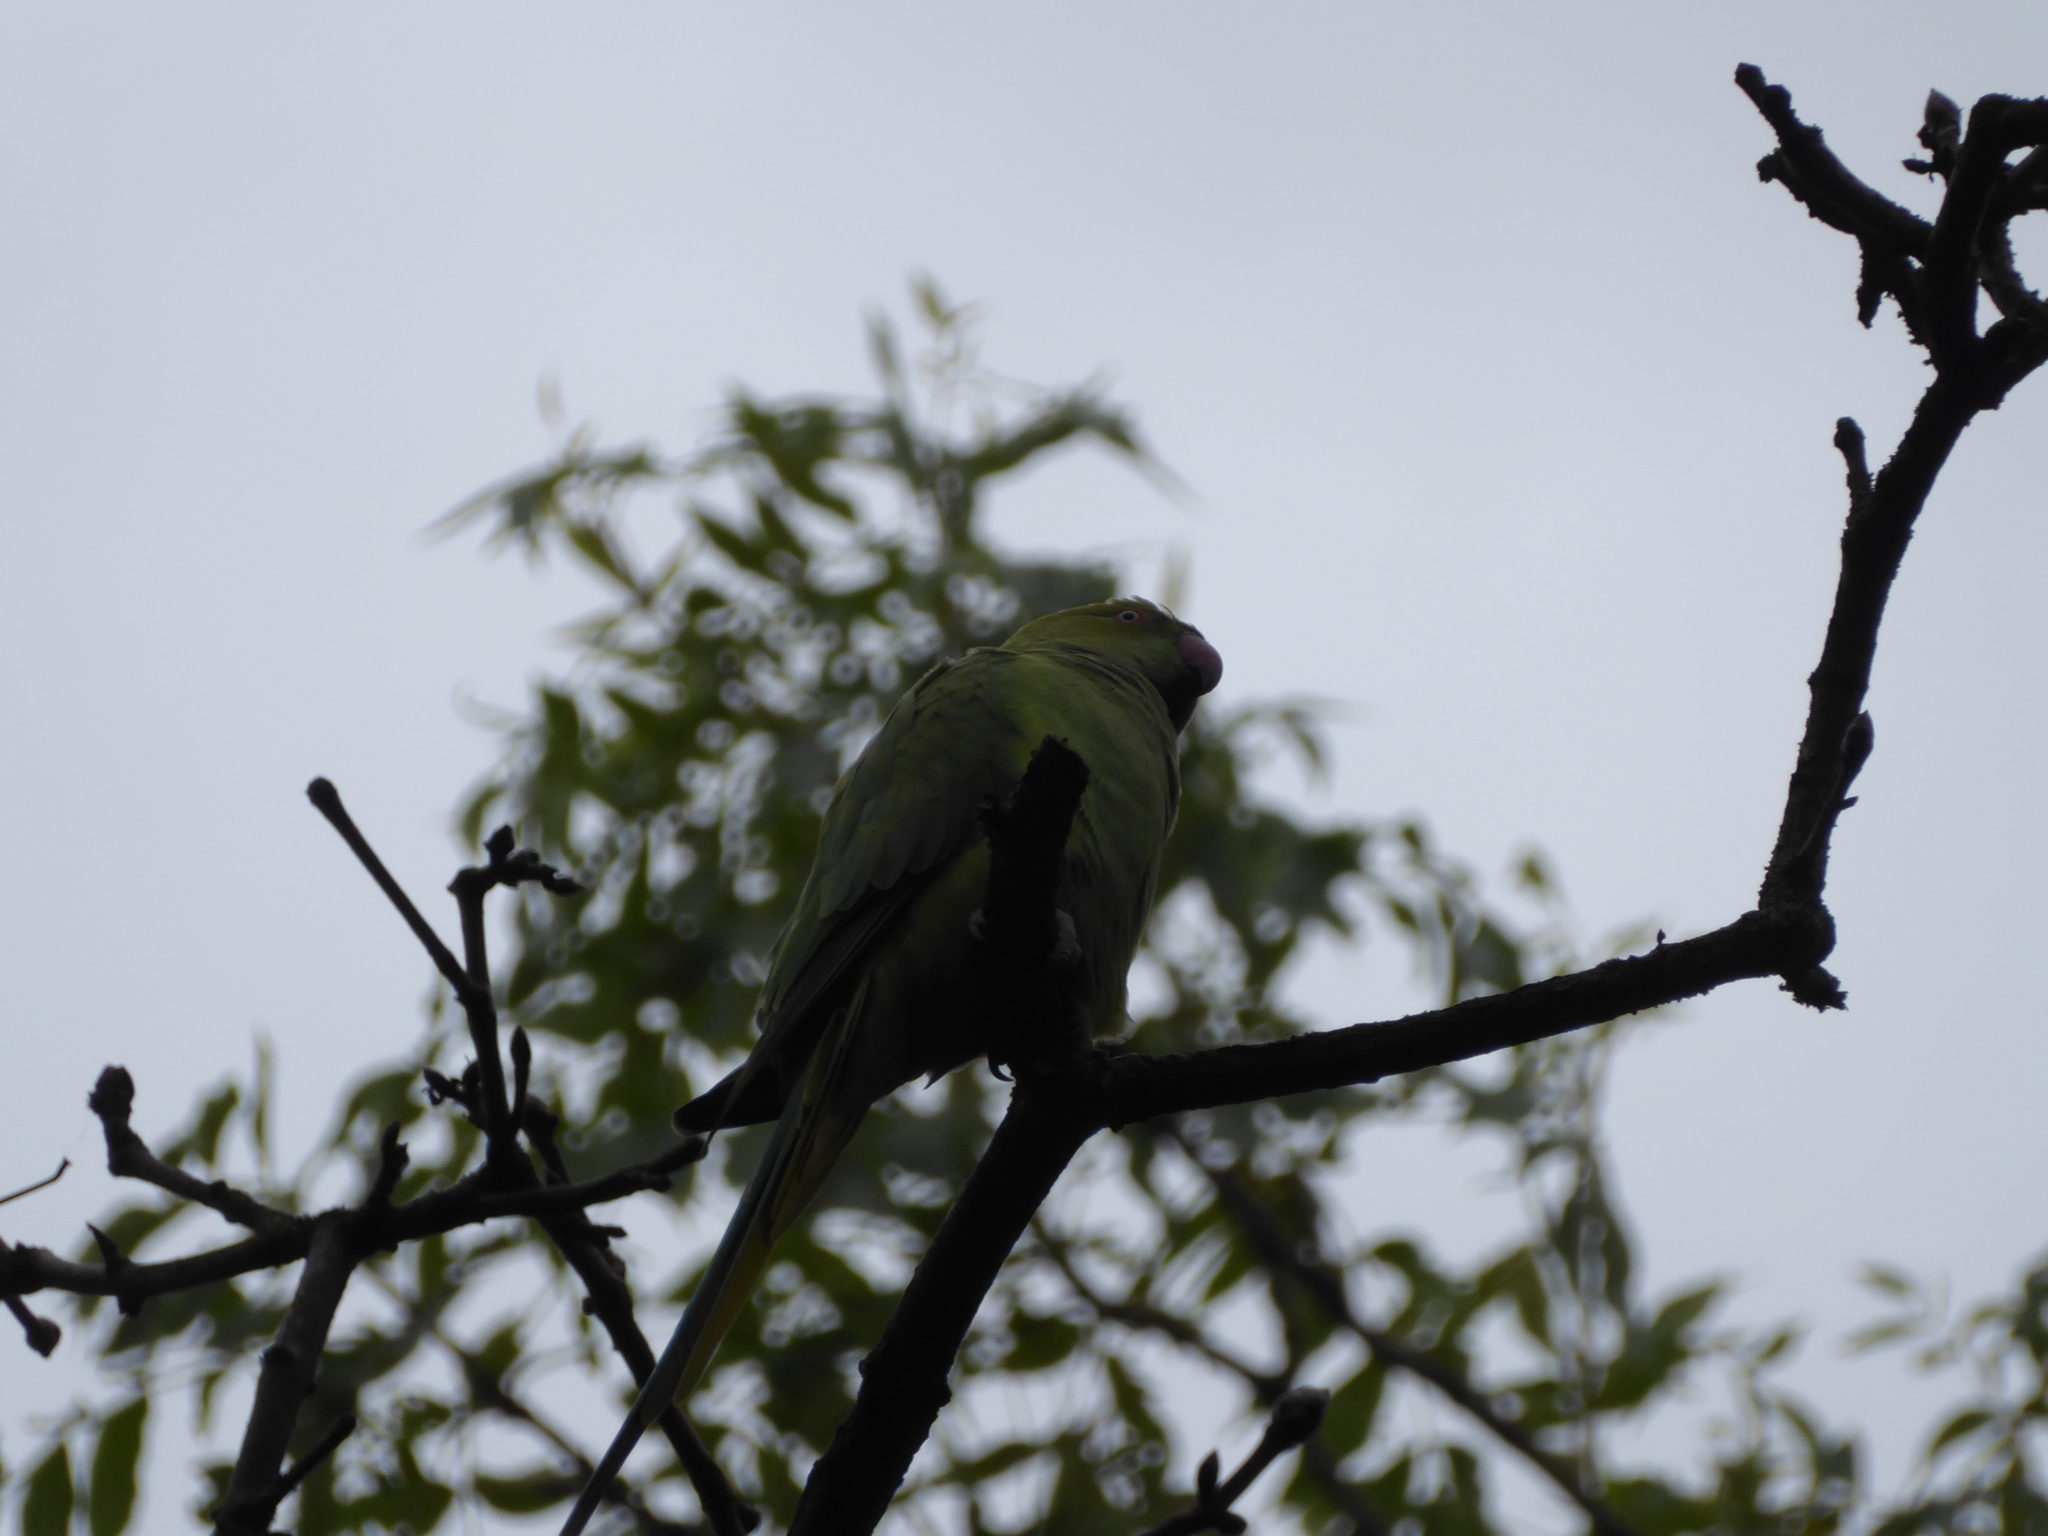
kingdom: Animalia
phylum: Chordata
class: Aves
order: Psittaciformes
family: Psittacidae
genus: Psittacula
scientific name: Psittacula krameri
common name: Rose-ringed parakeet
